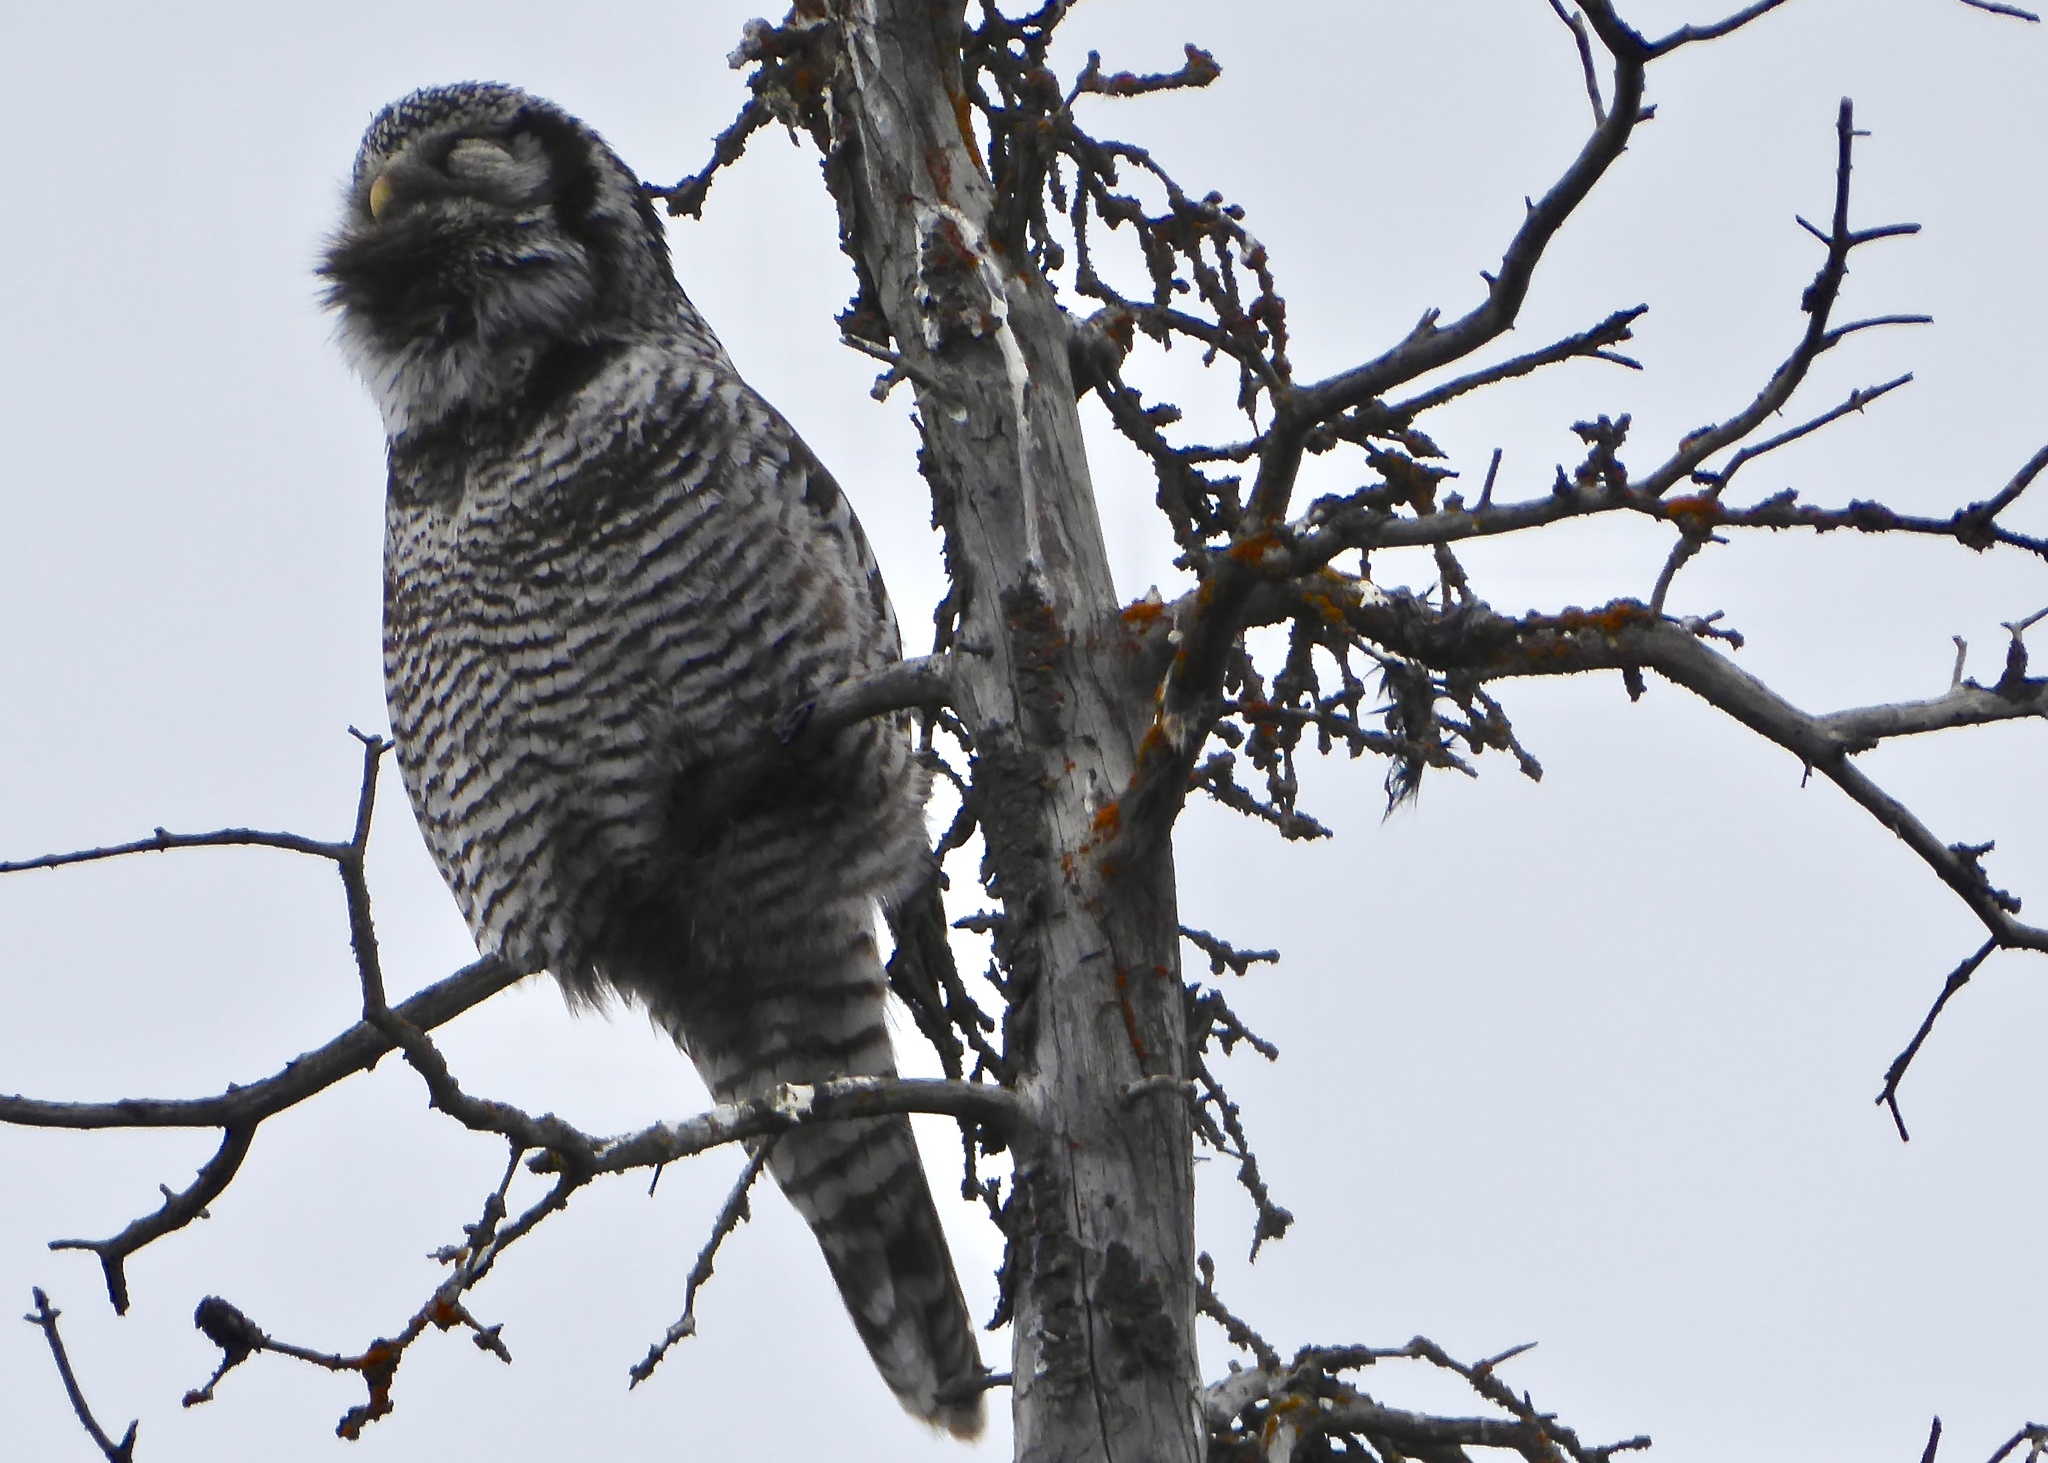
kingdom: Animalia
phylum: Chordata
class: Aves
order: Strigiformes
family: Strigidae
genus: Surnia
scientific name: Surnia ulula
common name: Northern hawk-owl
